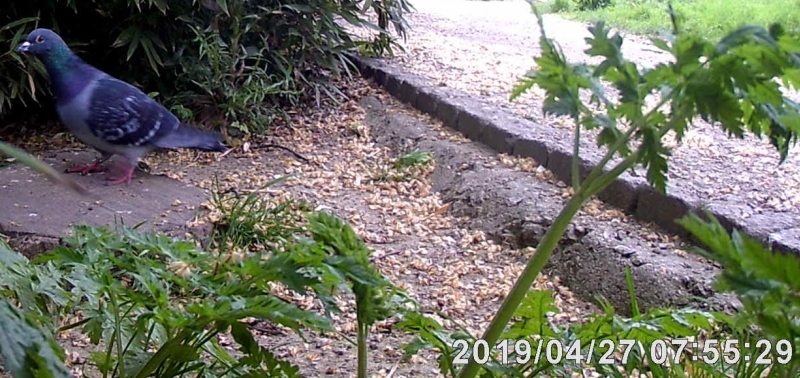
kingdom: Animalia
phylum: Chordata
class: Aves
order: Columbiformes
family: Columbidae
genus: Columba
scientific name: Columba livia
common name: Rock pigeon
